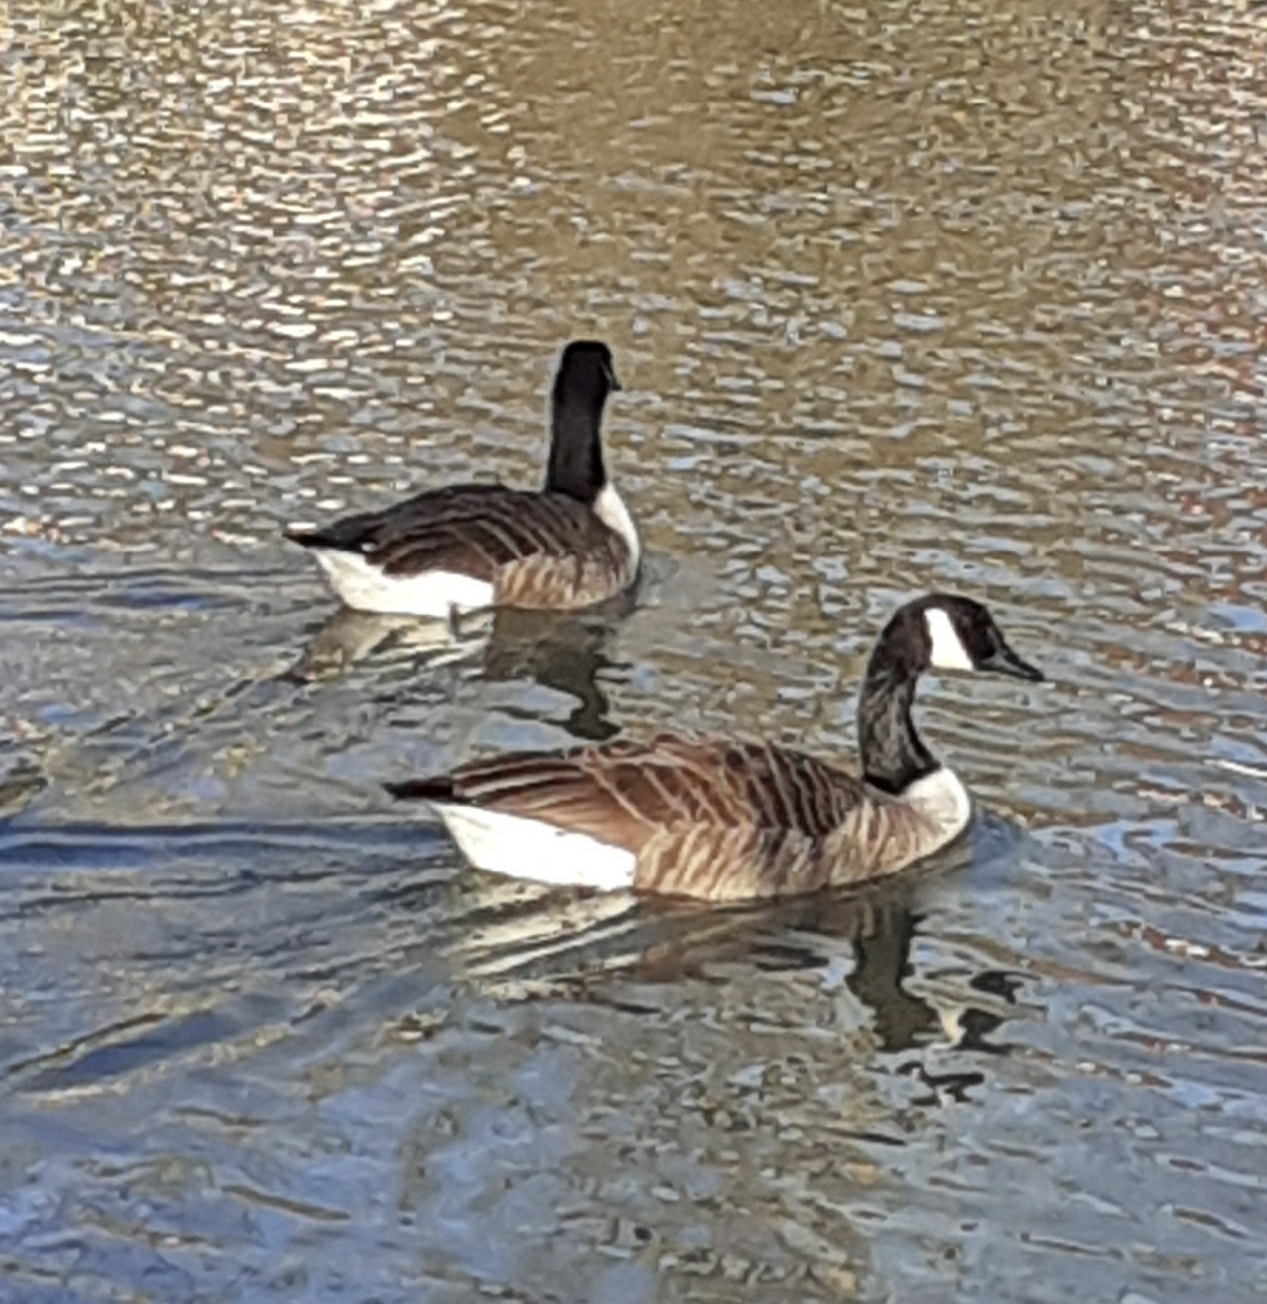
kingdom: Animalia
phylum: Chordata
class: Aves
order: Anseriformes
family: Anatidae
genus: Branta
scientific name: Branta canadensis
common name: Canada goose
